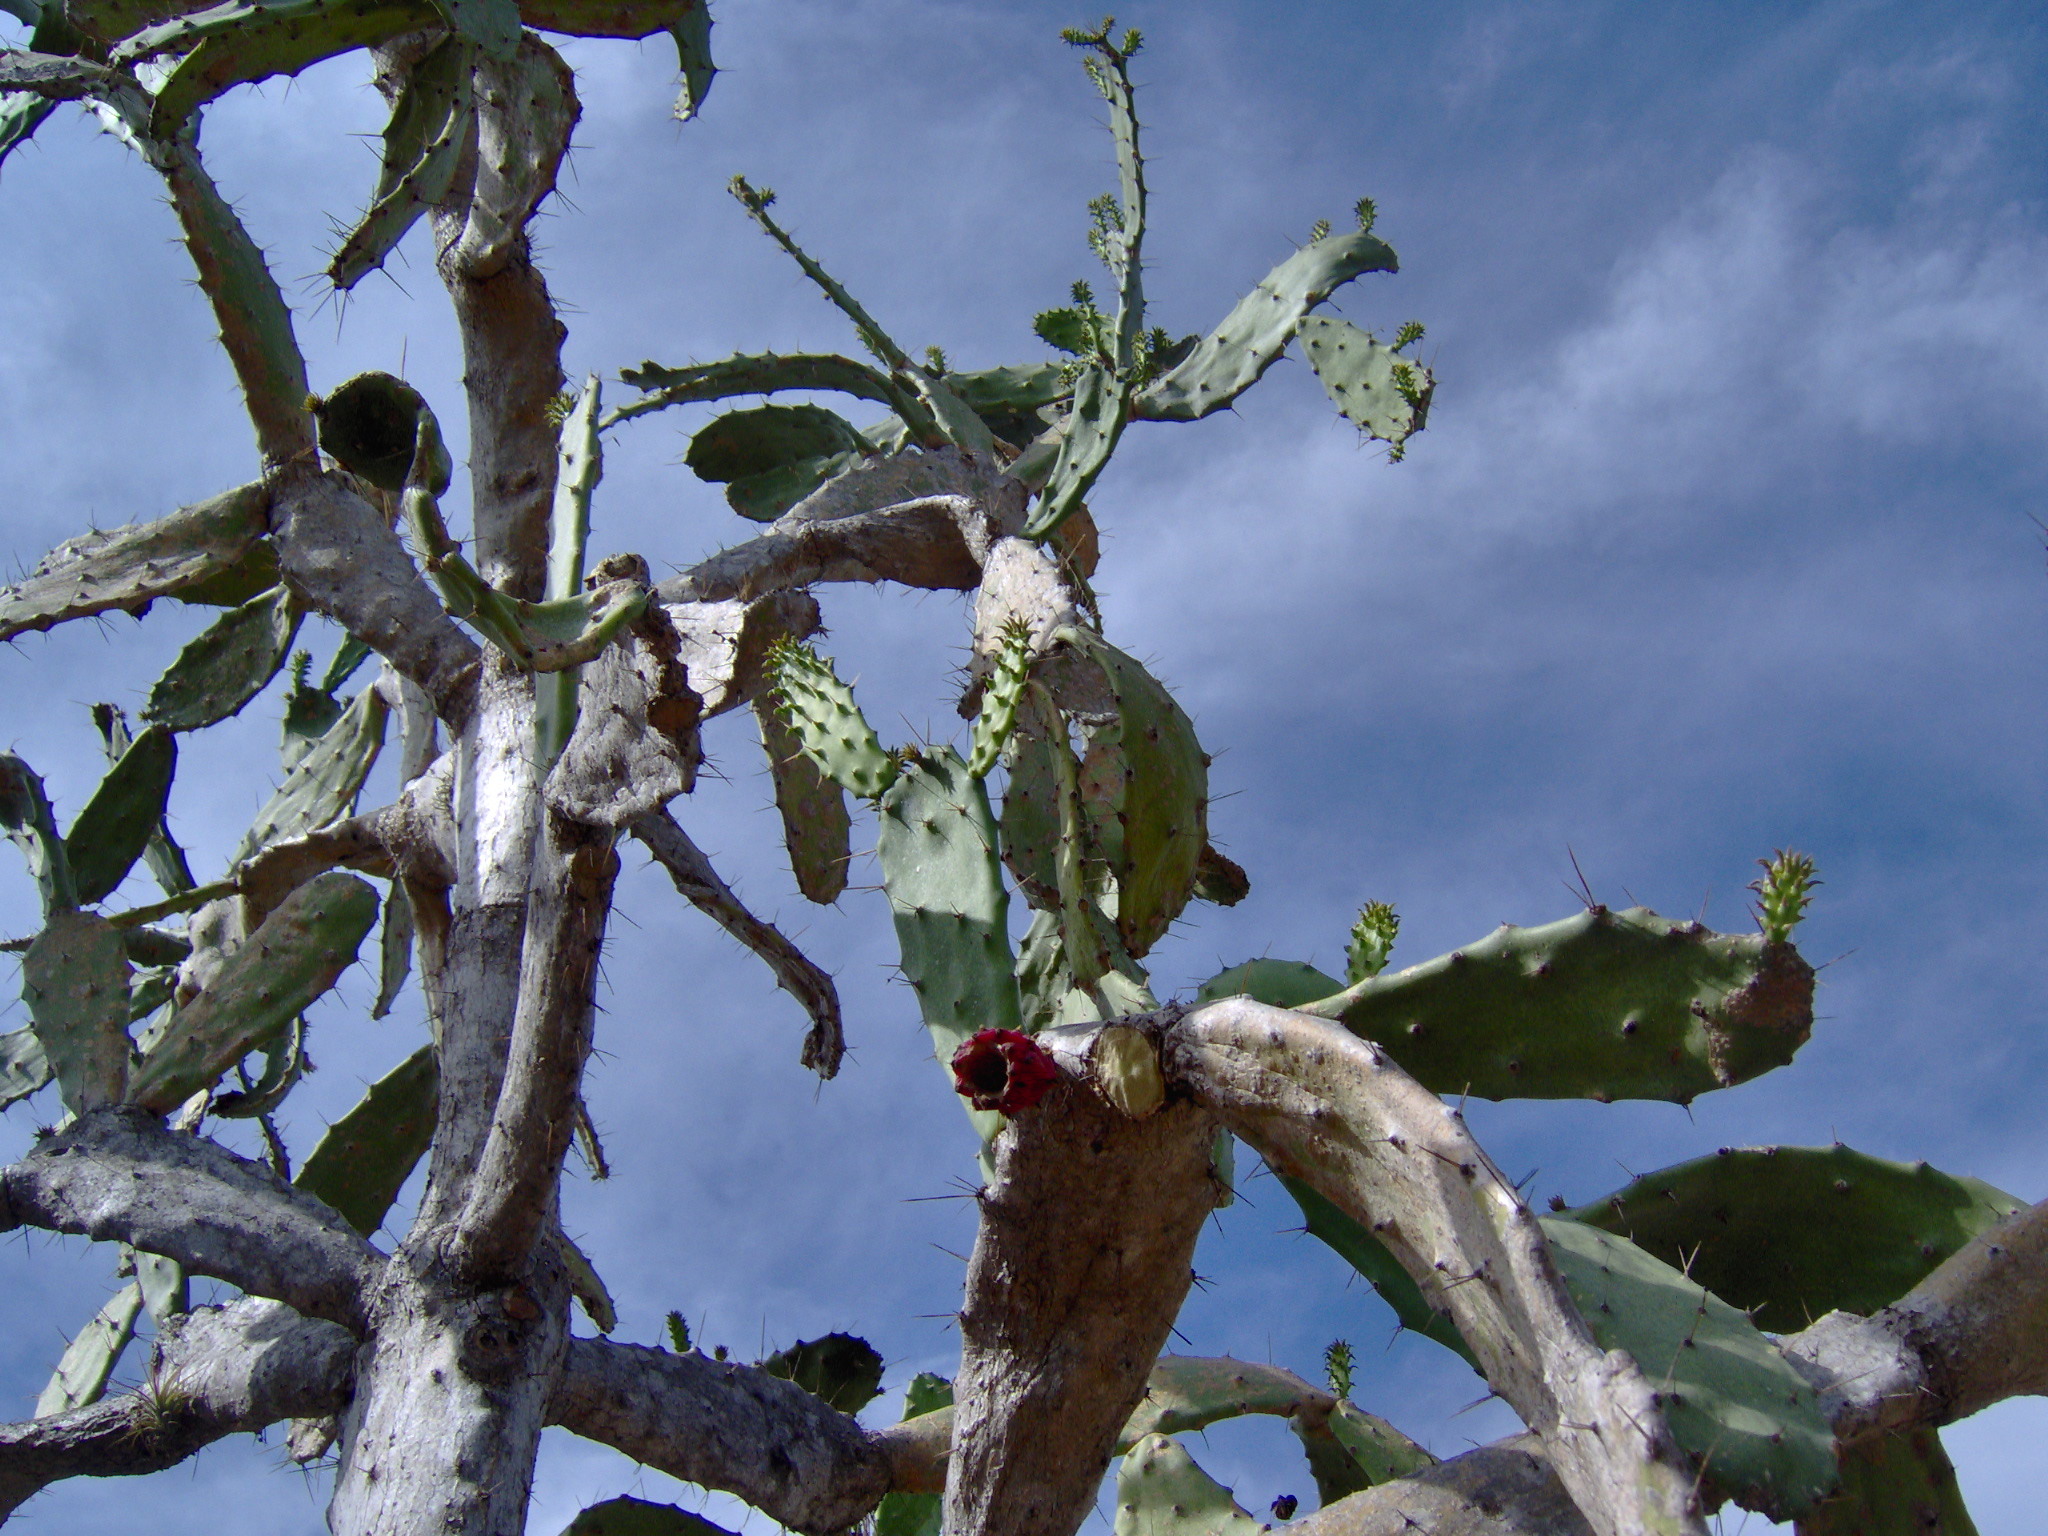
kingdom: Plantae
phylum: Tracheophyta
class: Magnoliopsida
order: Caryophyllales
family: Cactaceae
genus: Opuntia
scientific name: Opuntia dejecta
